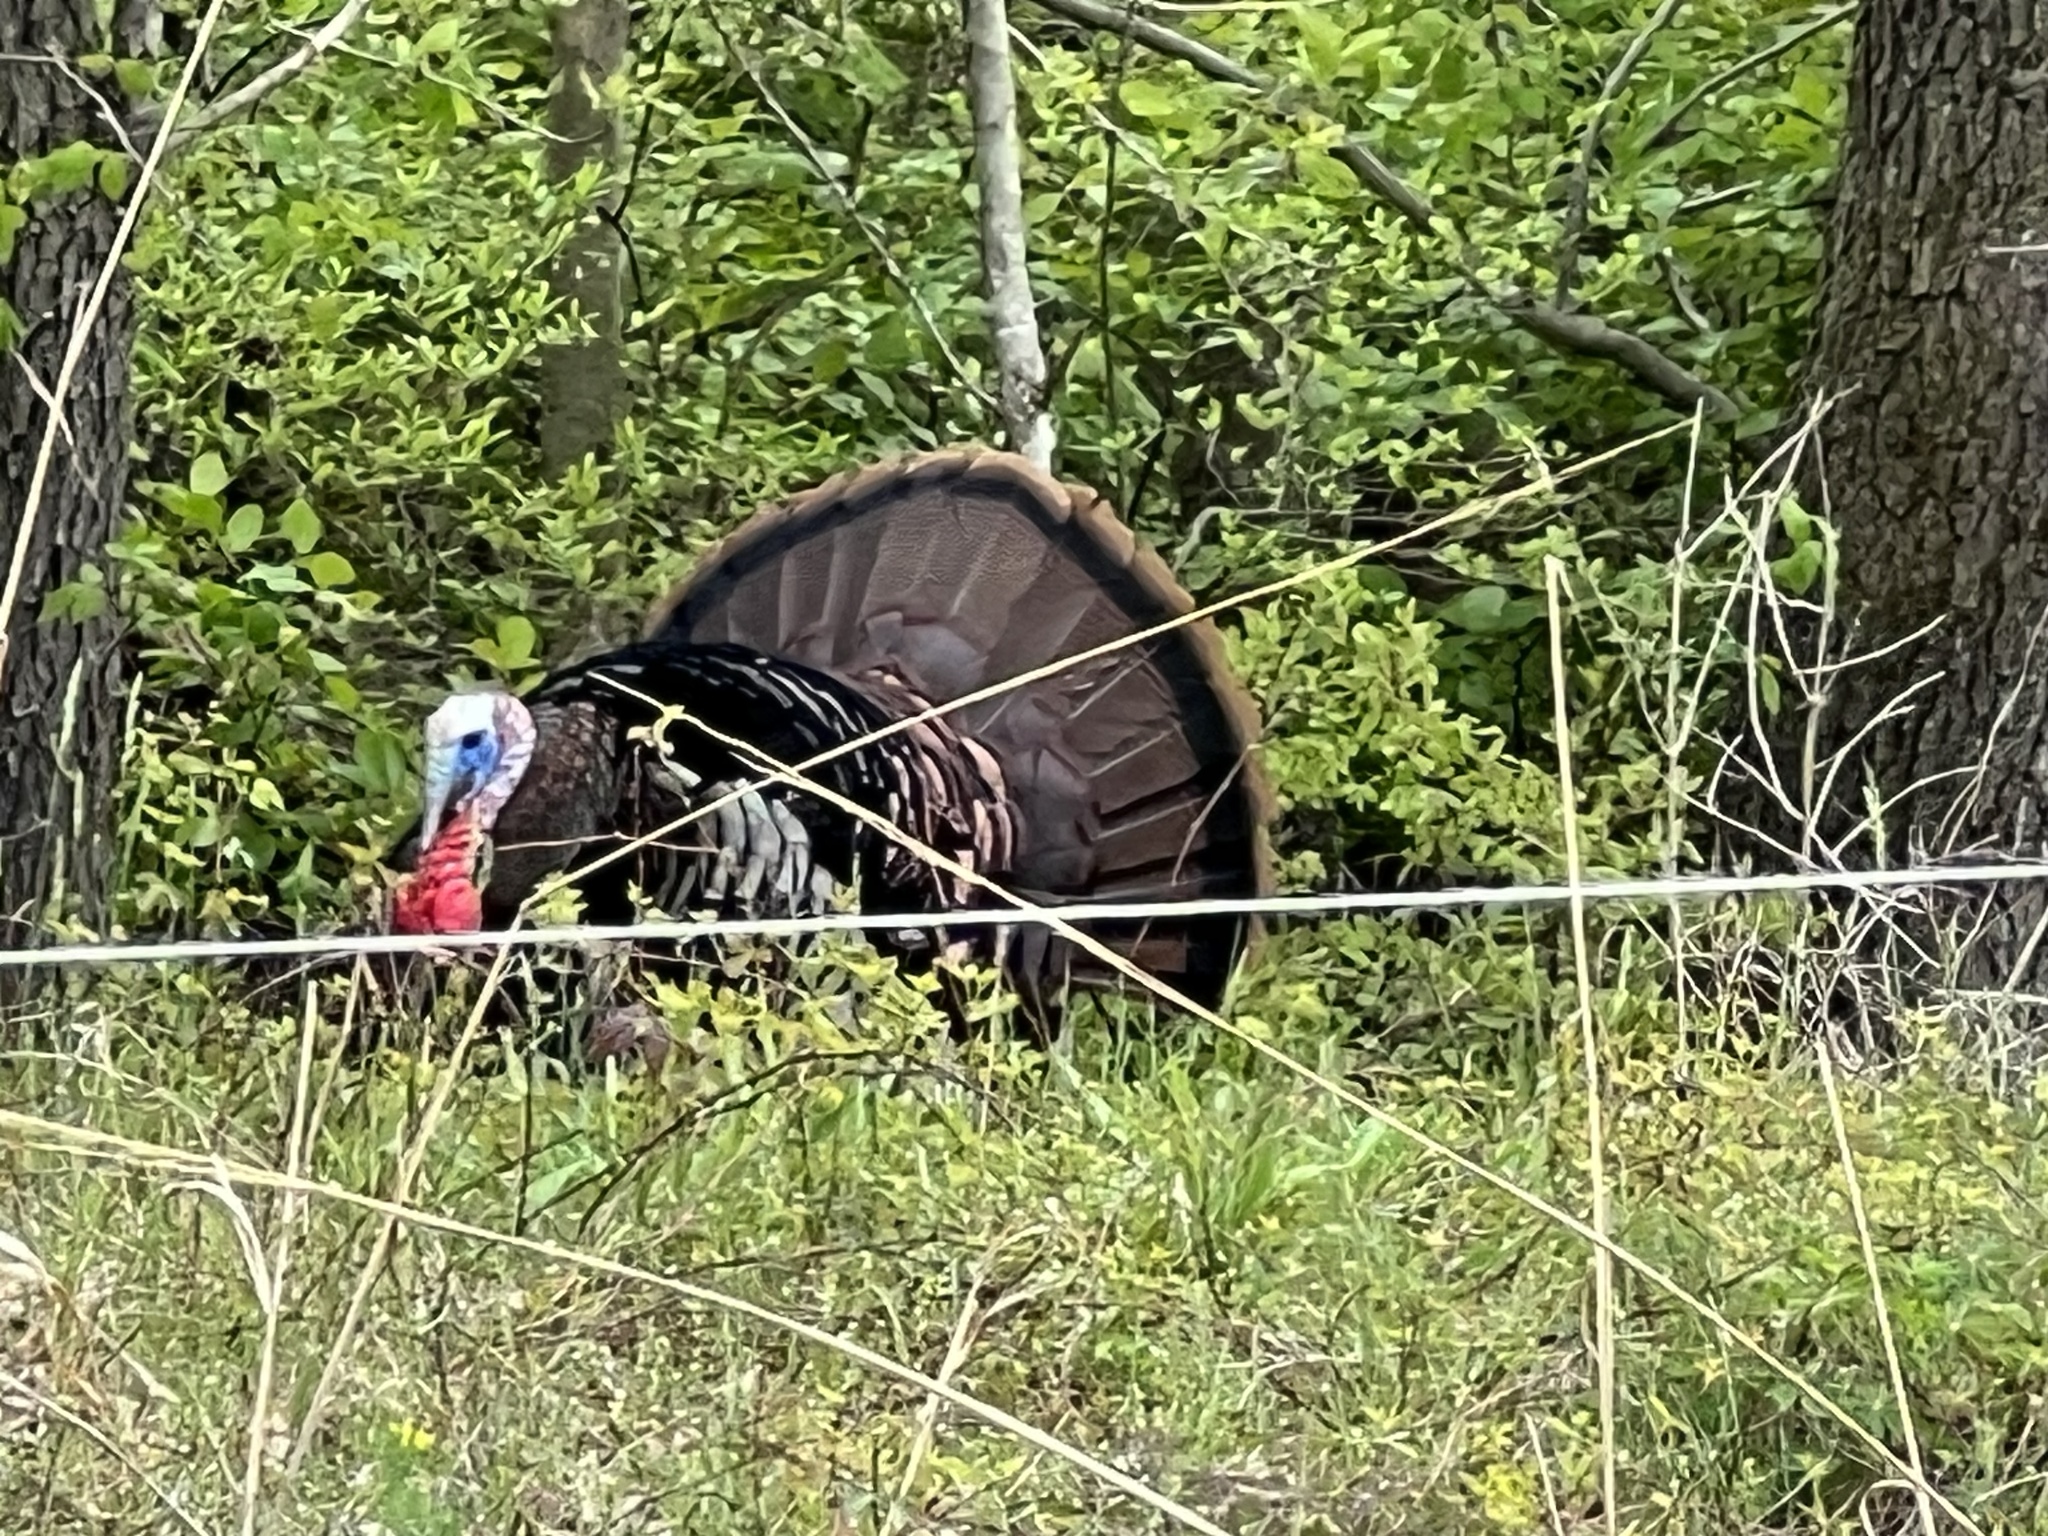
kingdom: Animalia
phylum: Chordata
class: Aves
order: Galliformes
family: Phasianidae
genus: Meleagris
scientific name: Meleagris gallopavo
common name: Wild turkey
